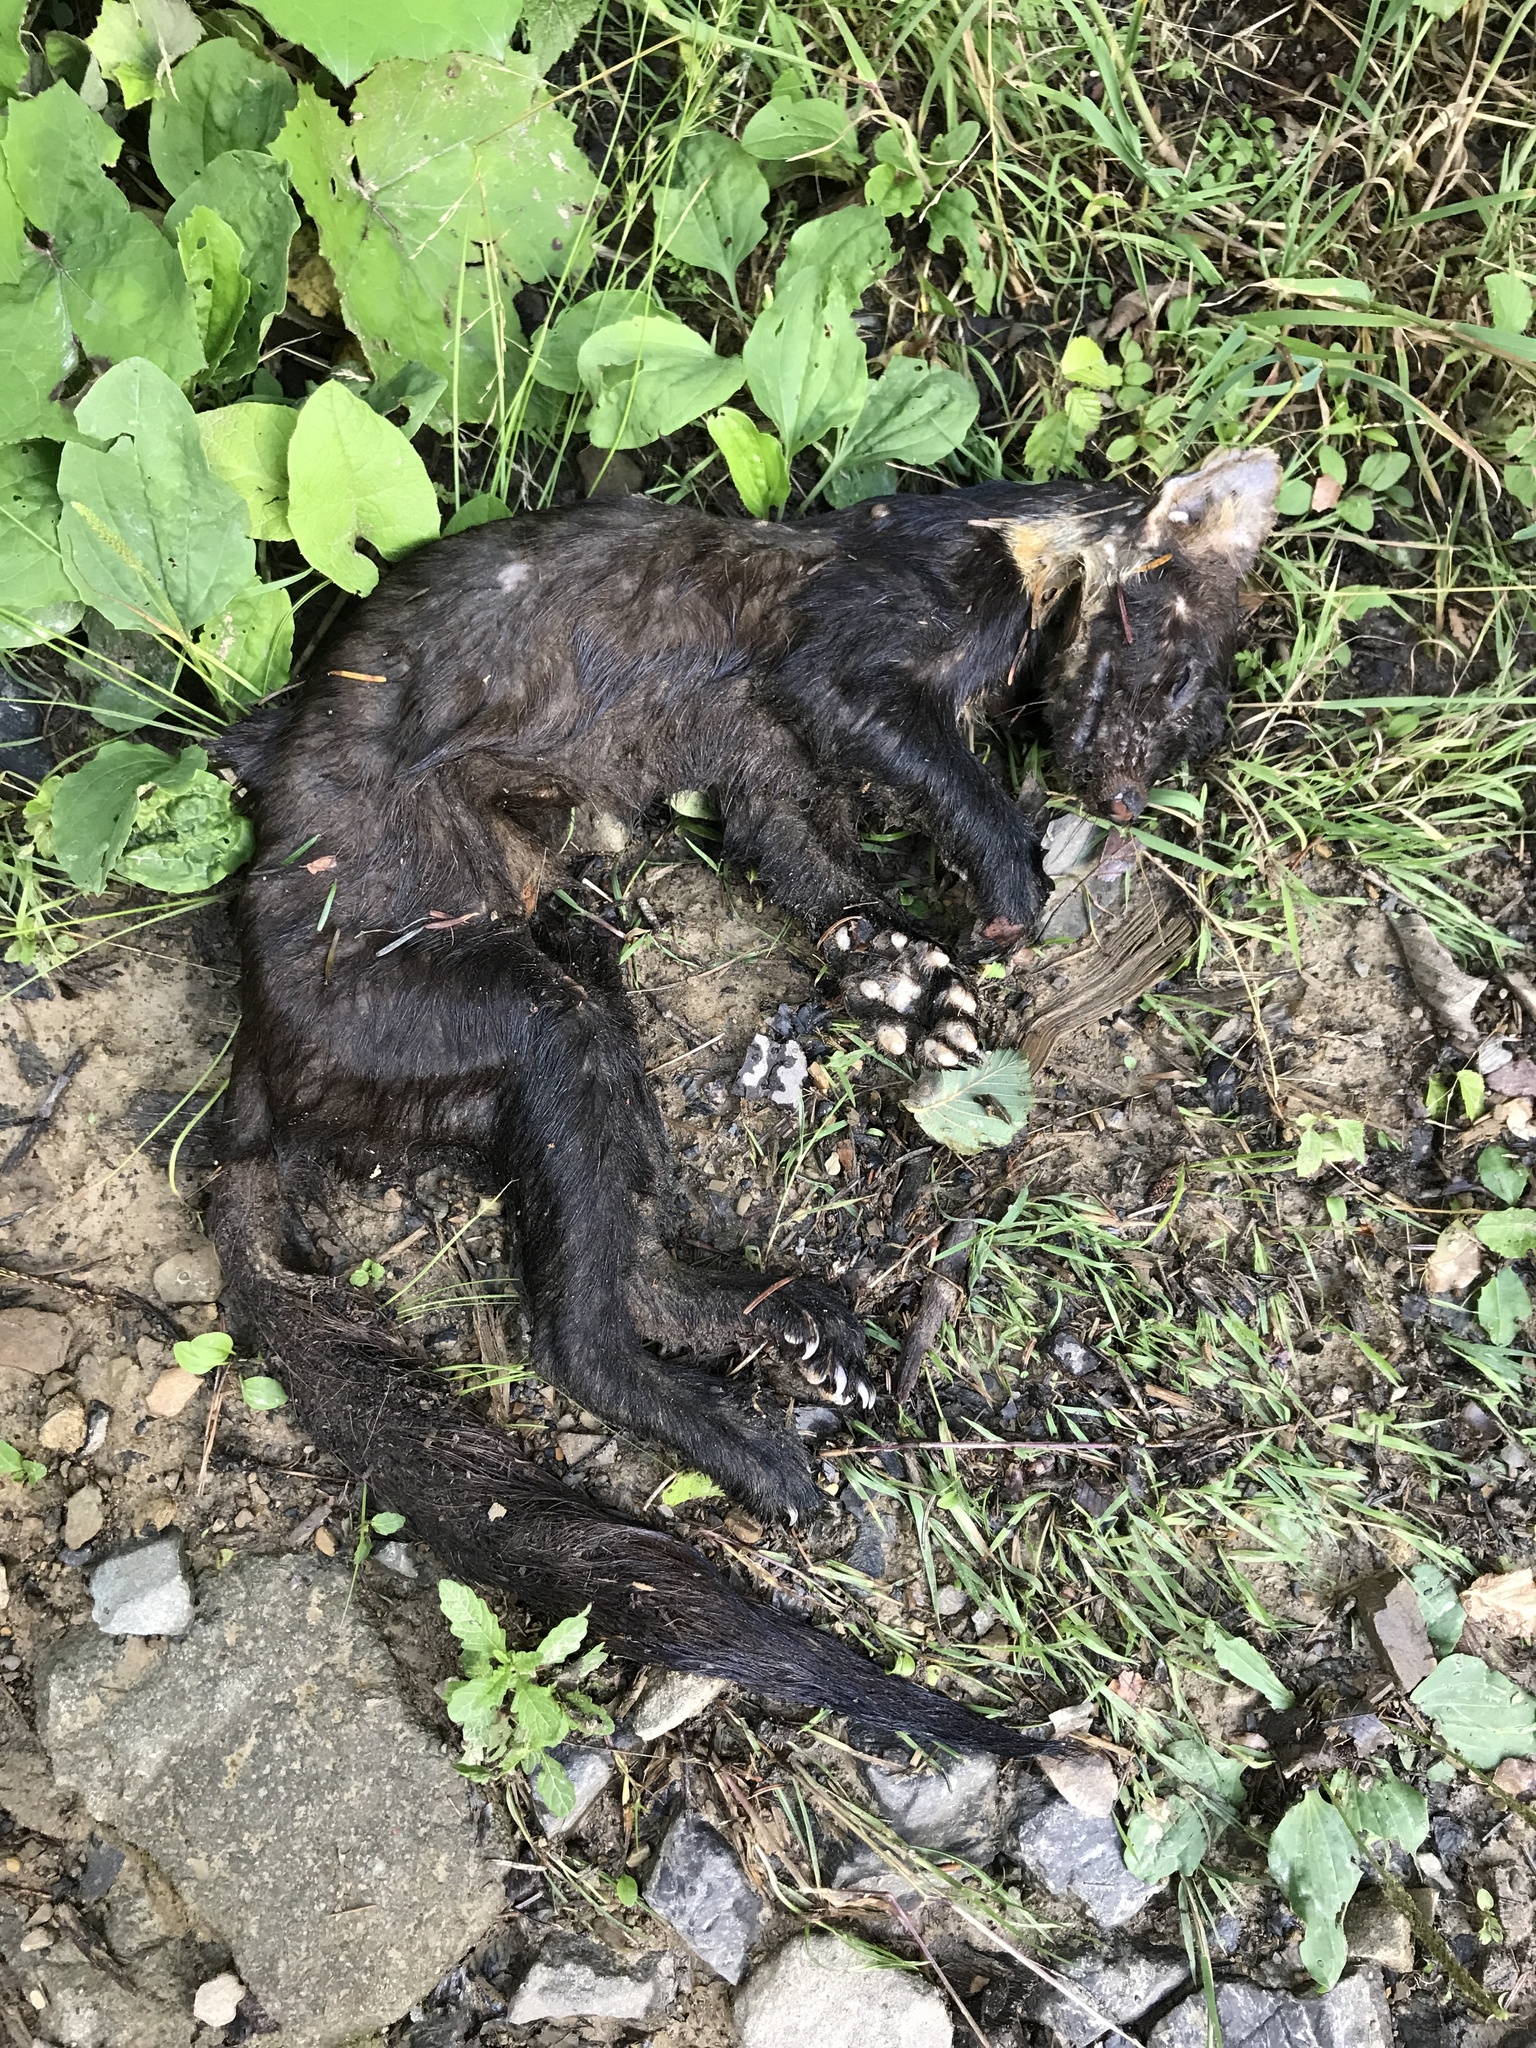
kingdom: Animalia
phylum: Chordata
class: Mammalia
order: Carnivora
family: Mustelidae
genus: Martes
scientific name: Martes martes
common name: European pine marten
